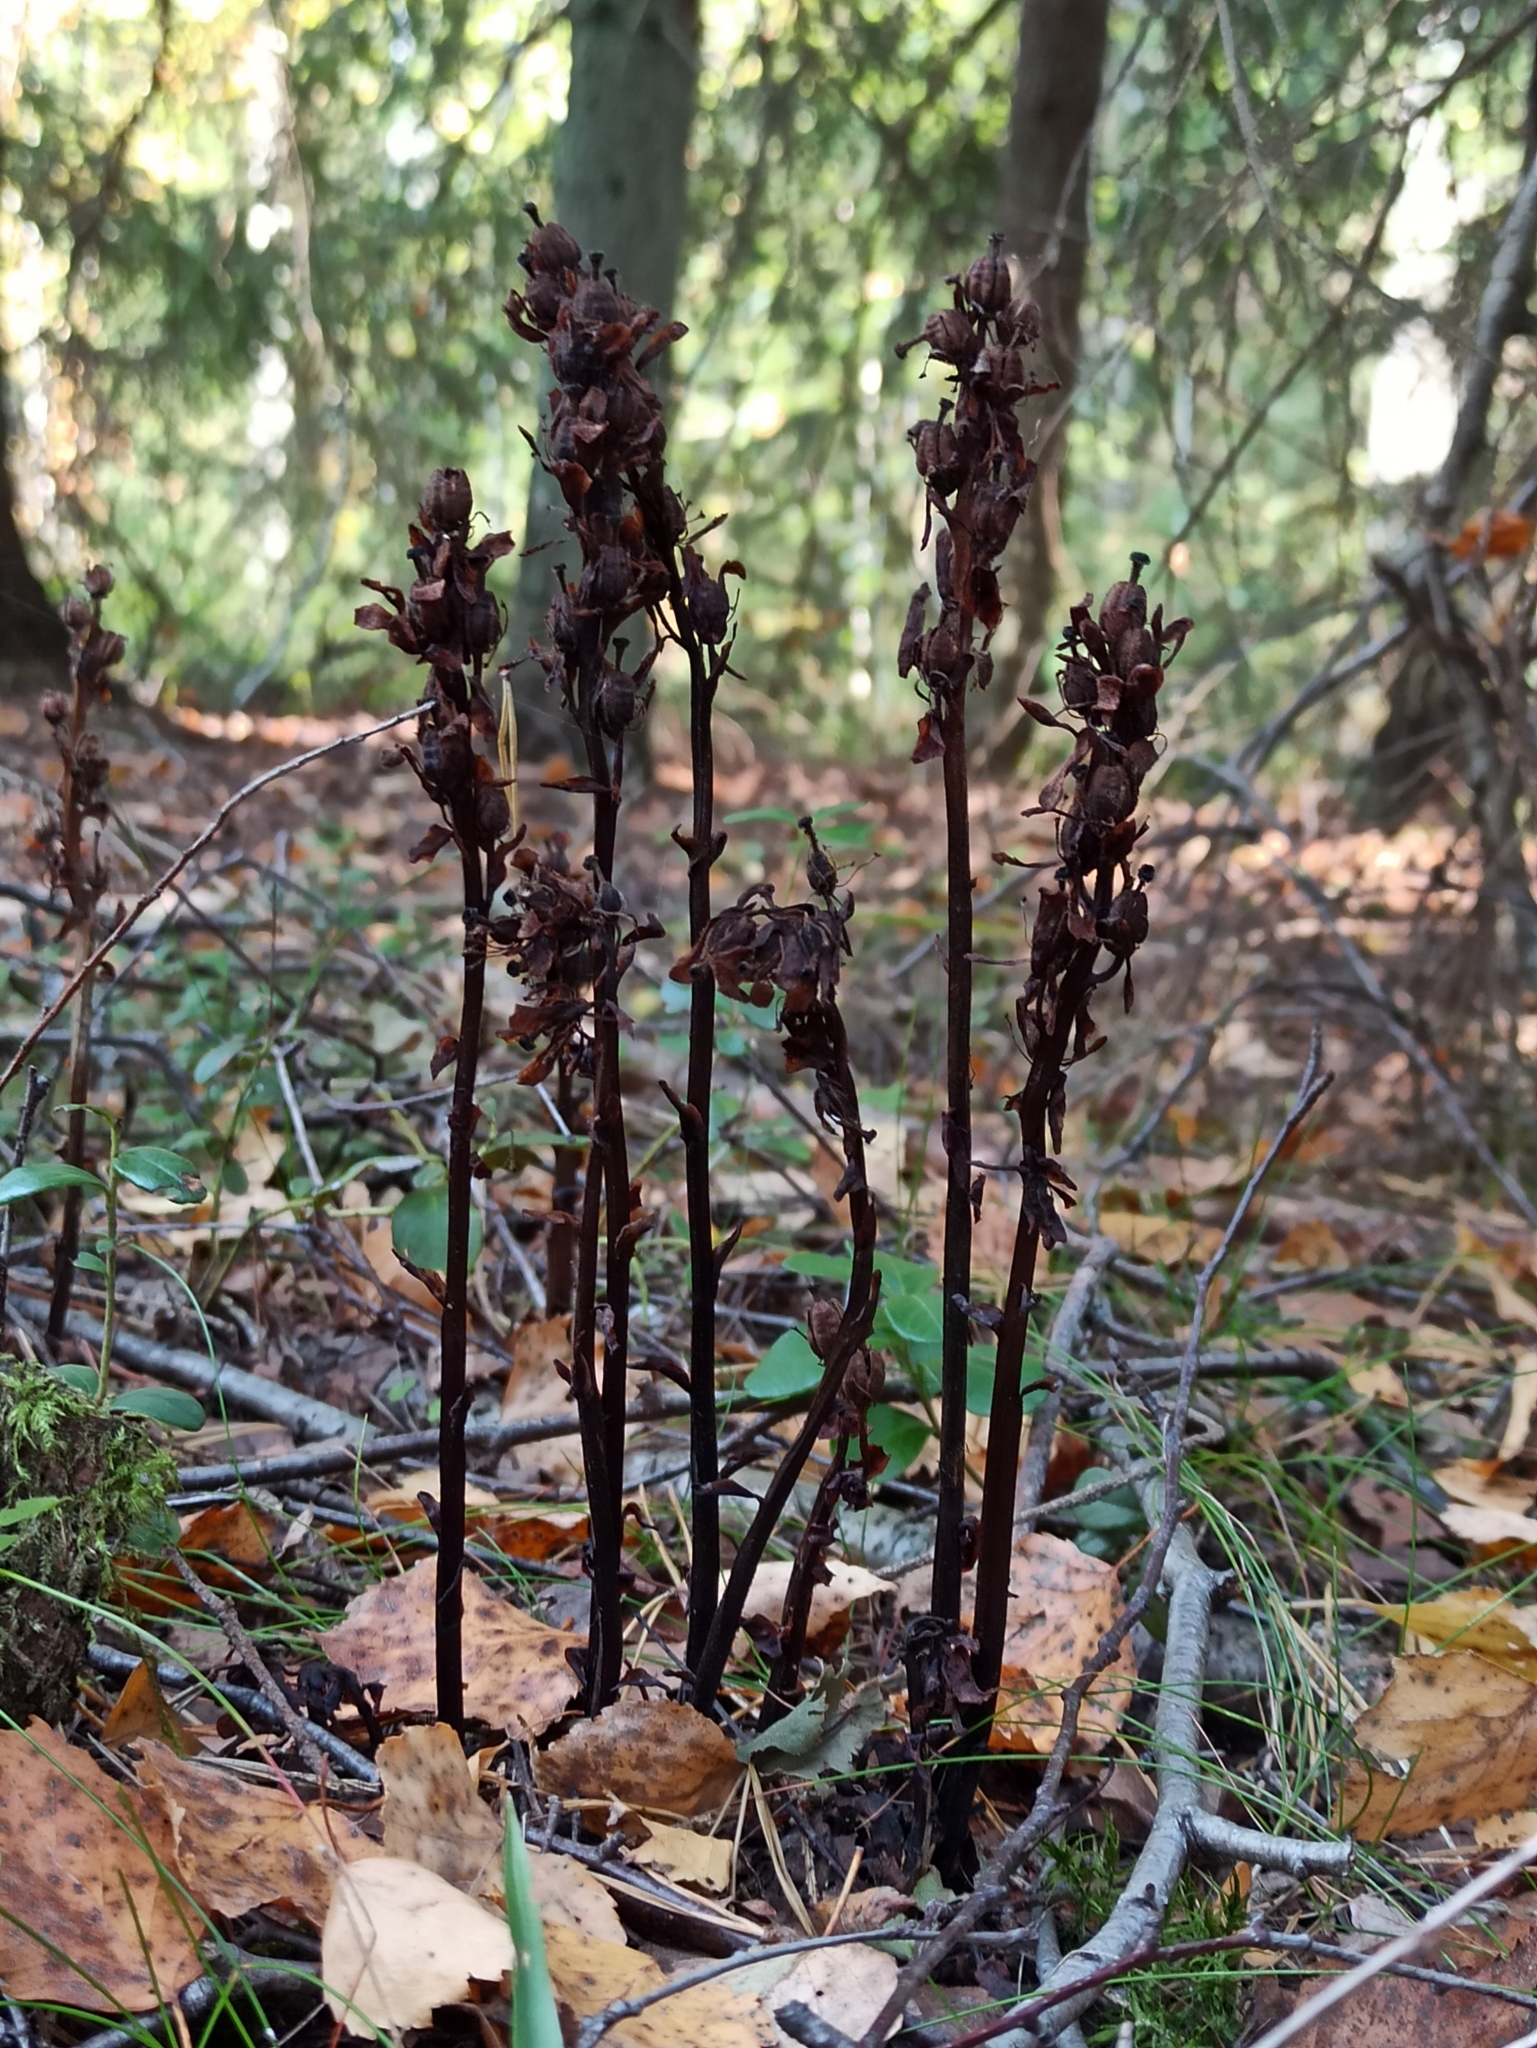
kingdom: Plantae
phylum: Tracheophyta
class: Magnoliopsida
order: Ericales
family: Ericaceae
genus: Hypopitys
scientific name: Hypopitys monotropa
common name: Yellow bird's-nest
